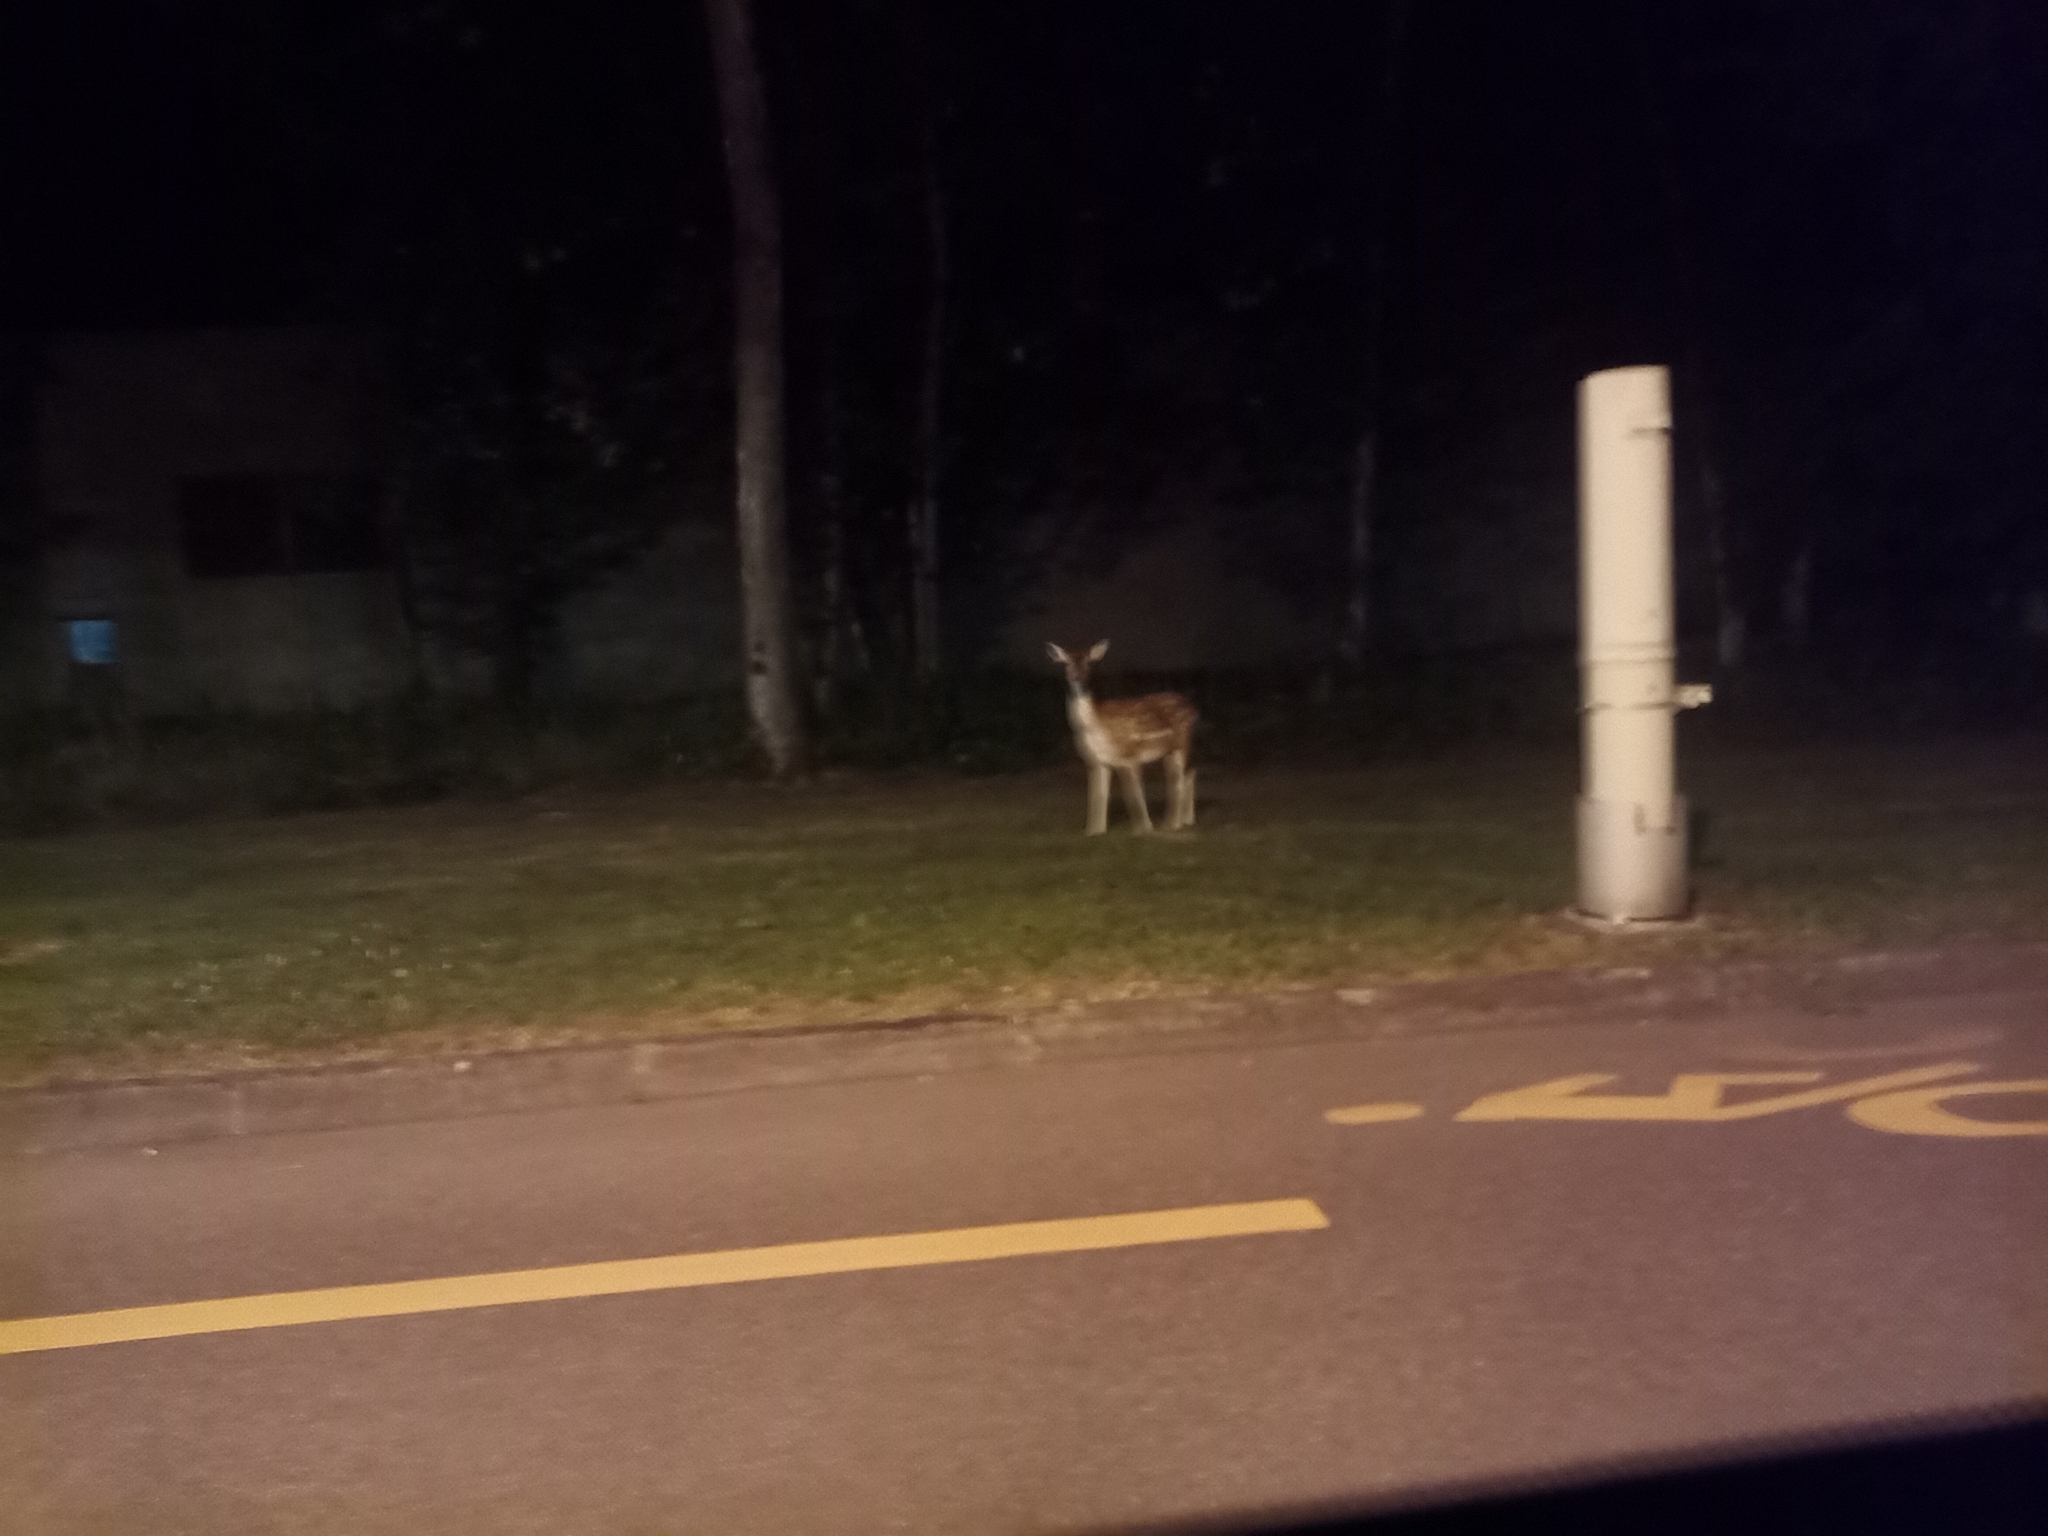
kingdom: Animalia
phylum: Chordata
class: Mammalia
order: Artiodactyla
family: Cervidae
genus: Dama
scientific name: Dama dama
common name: Fallow deer
